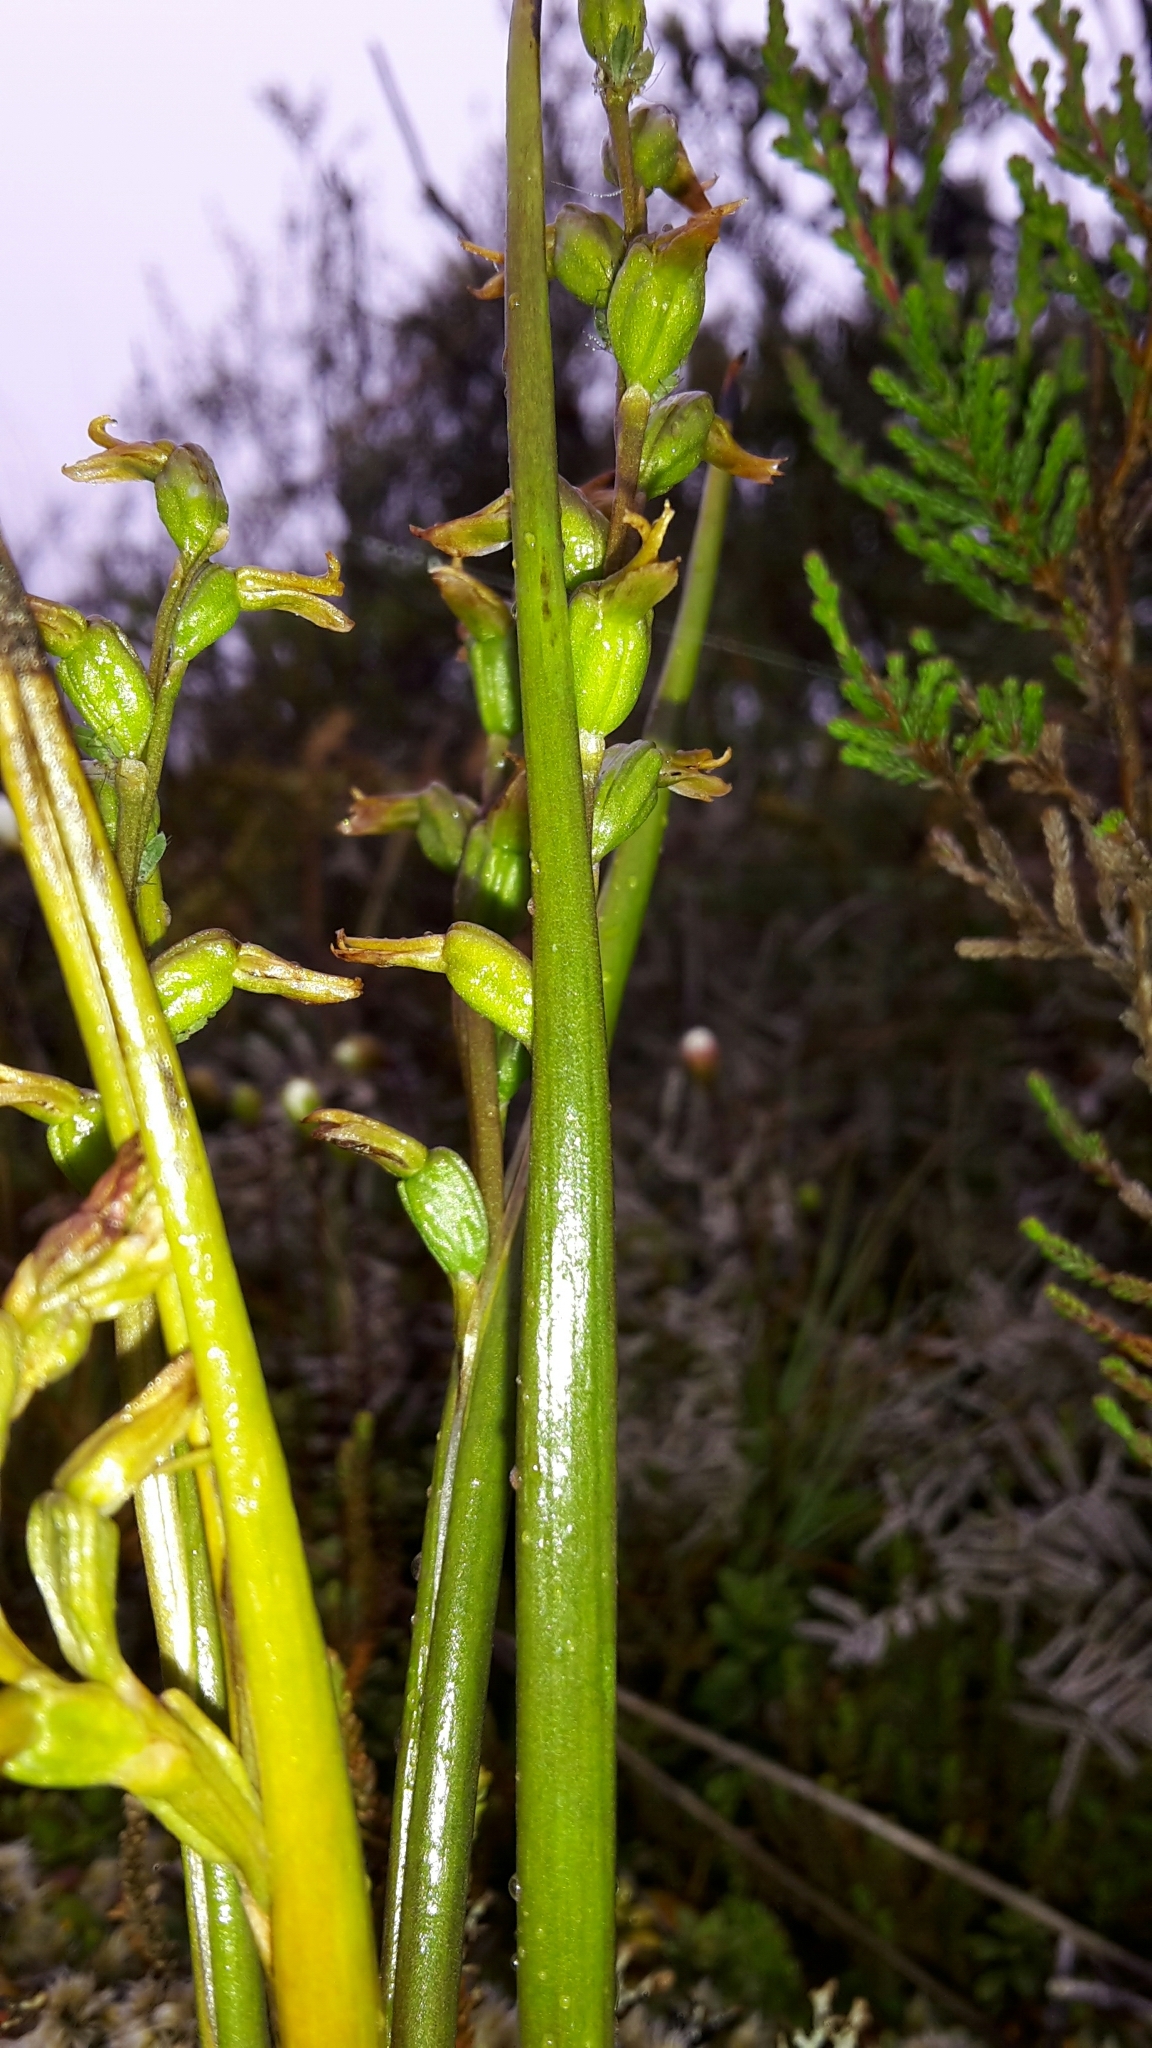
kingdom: Plantae
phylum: Tracheophyta
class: Liliopsida
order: Asparagales
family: Orchidaceae
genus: Prasophyllum
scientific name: Prasophyllum colensoi
